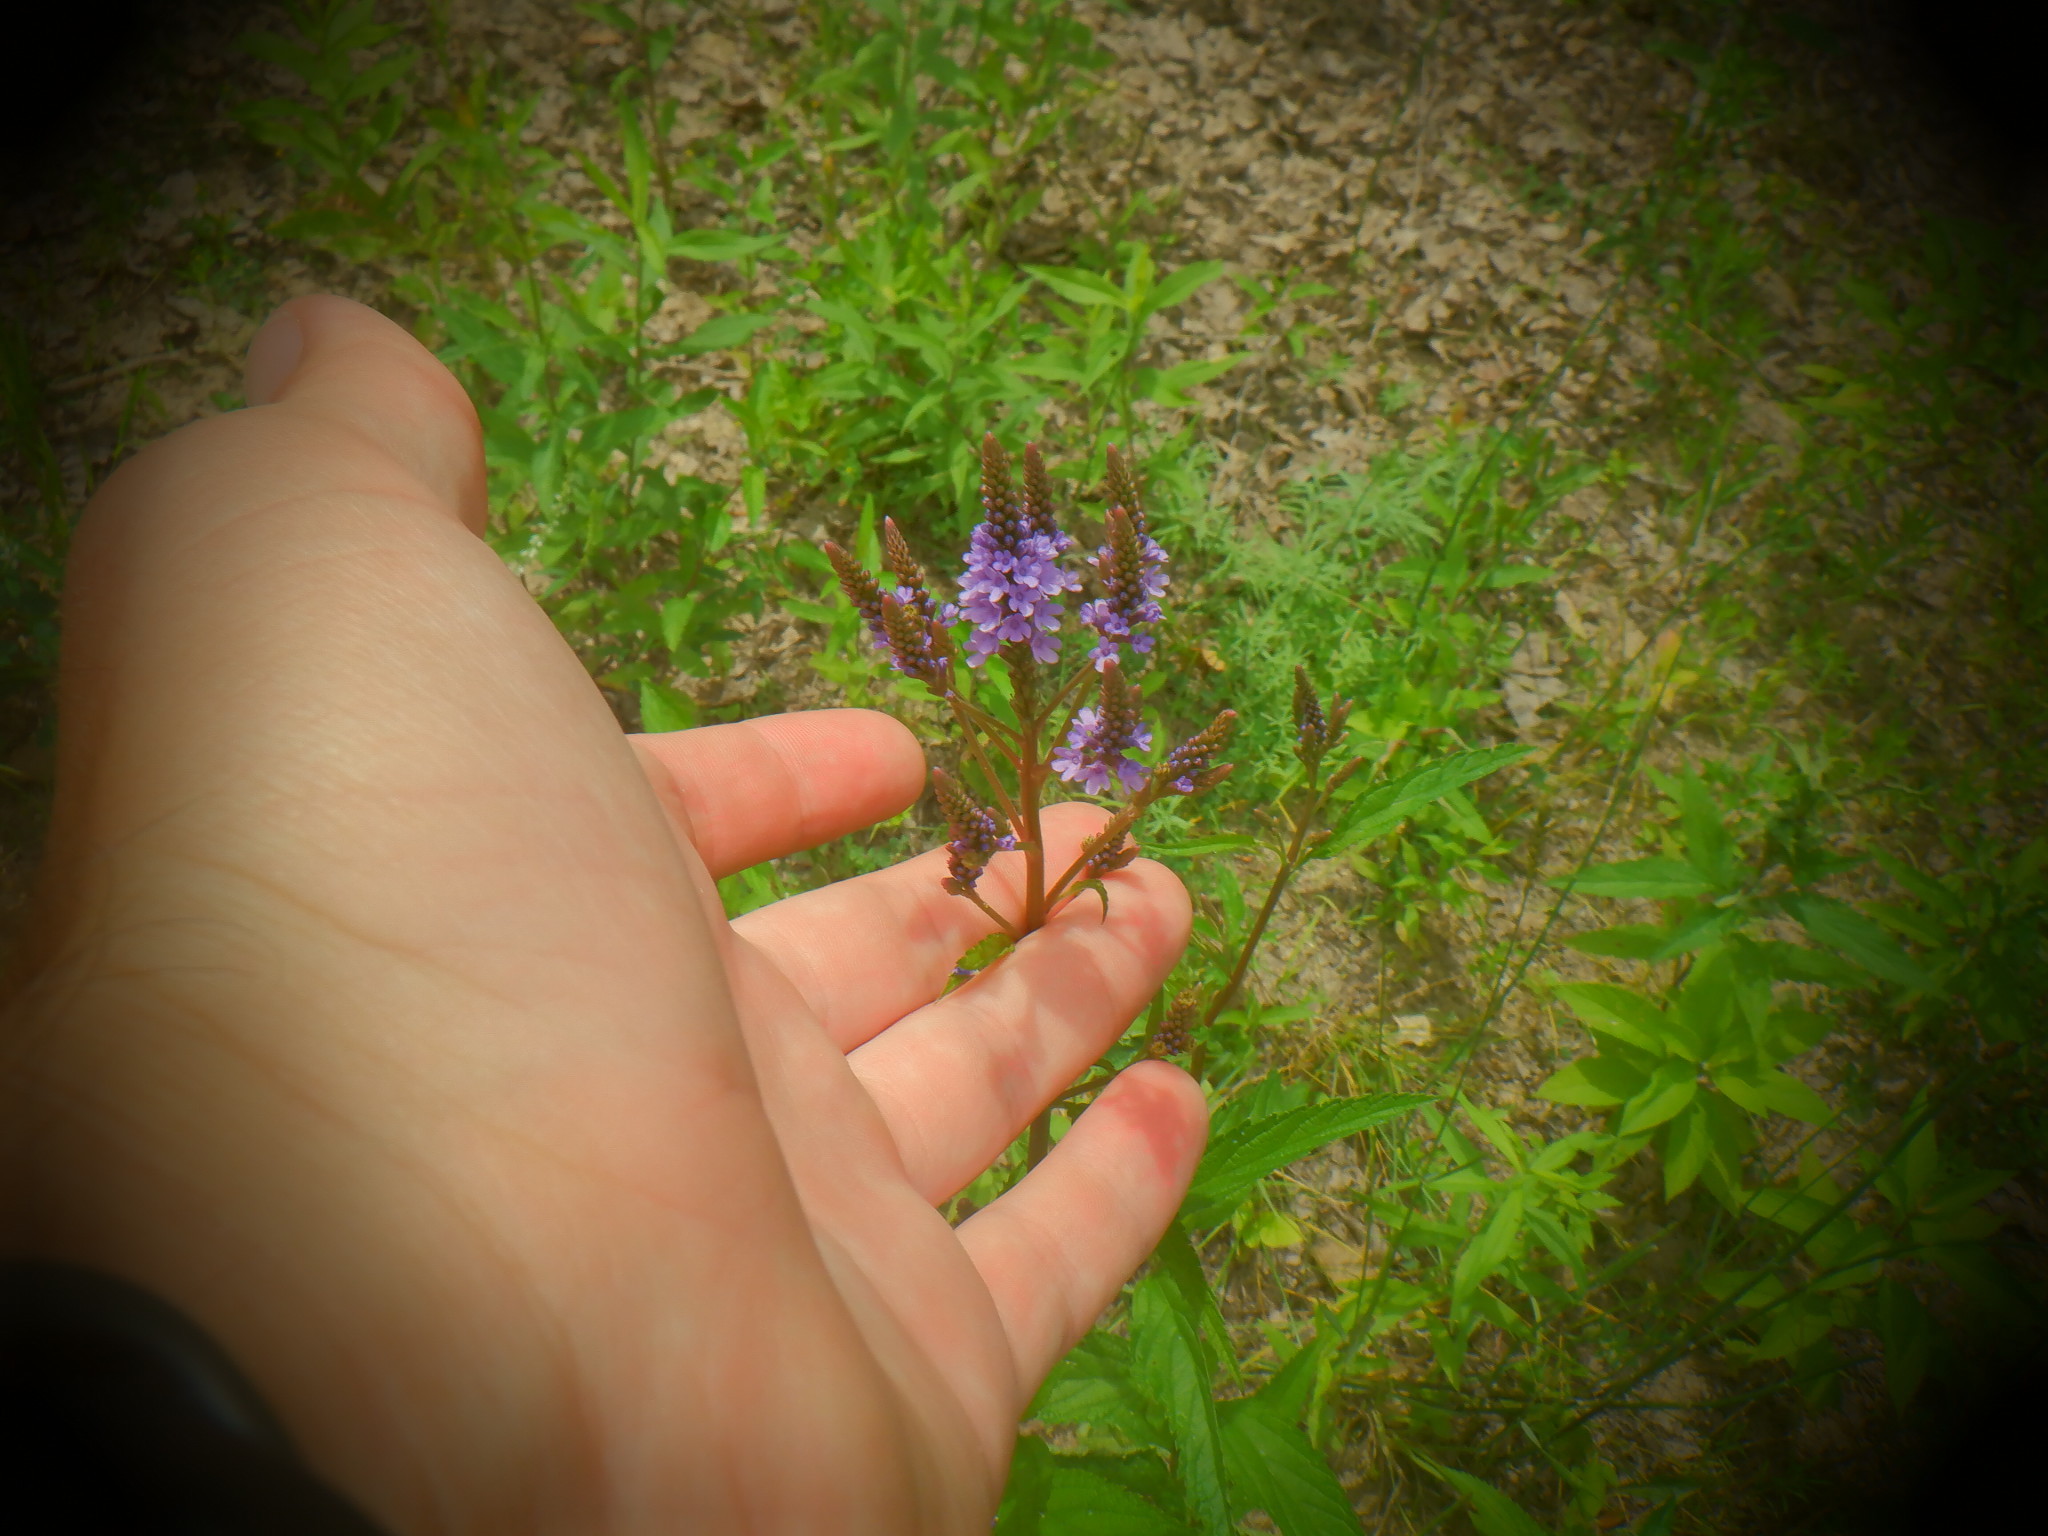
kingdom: Plantae
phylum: Tracheophyta
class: Magnoliopsida
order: Lamiales
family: Verbenaceae
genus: Verbena
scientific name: Verbena hastata
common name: American blue vervain
